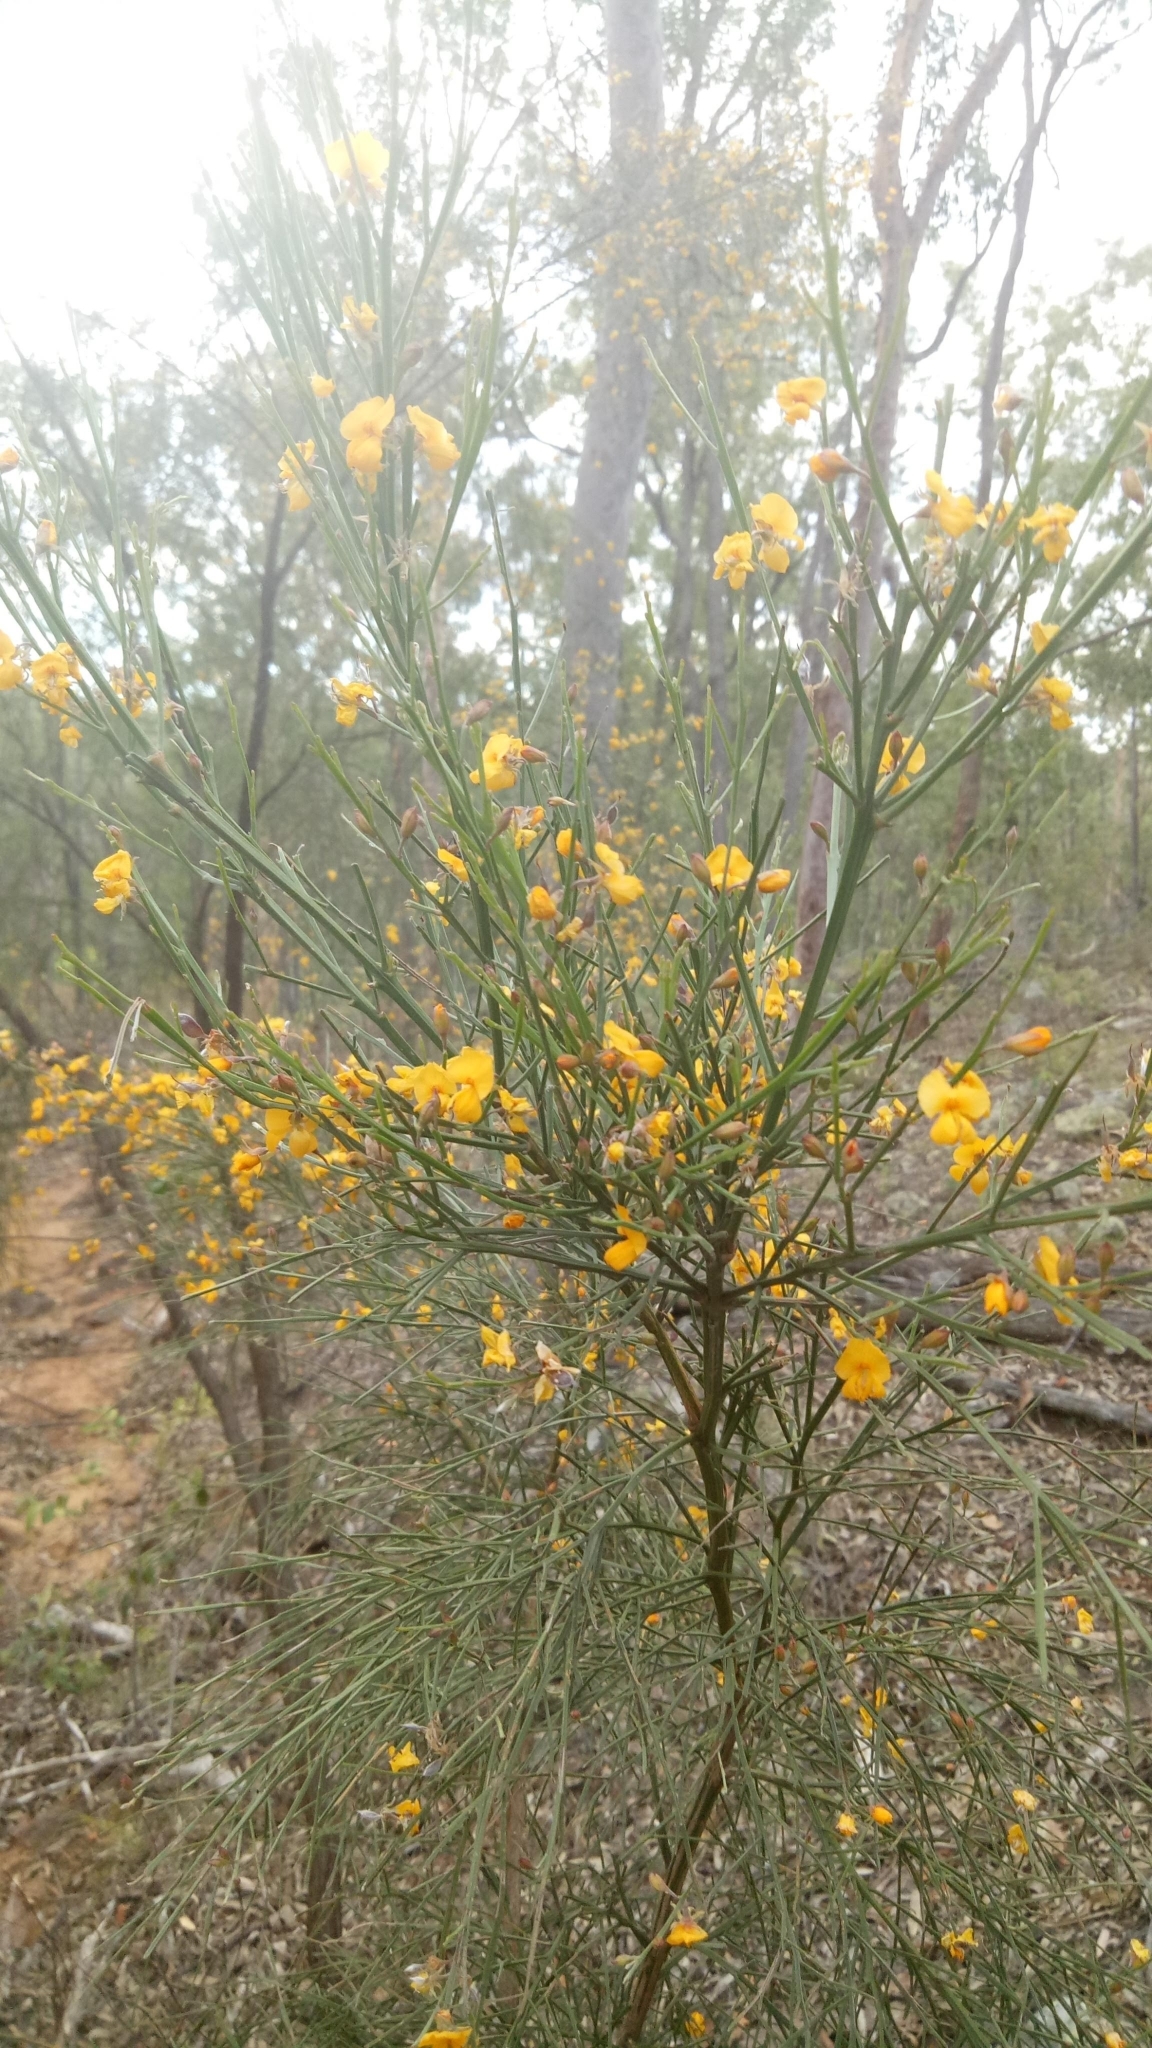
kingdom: Plantae
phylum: Tracheophyta
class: Magnoliopsida
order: Fabales
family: Fabaceae
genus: Jacksonia
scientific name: Jacksonia scoparia
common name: Dogwood
